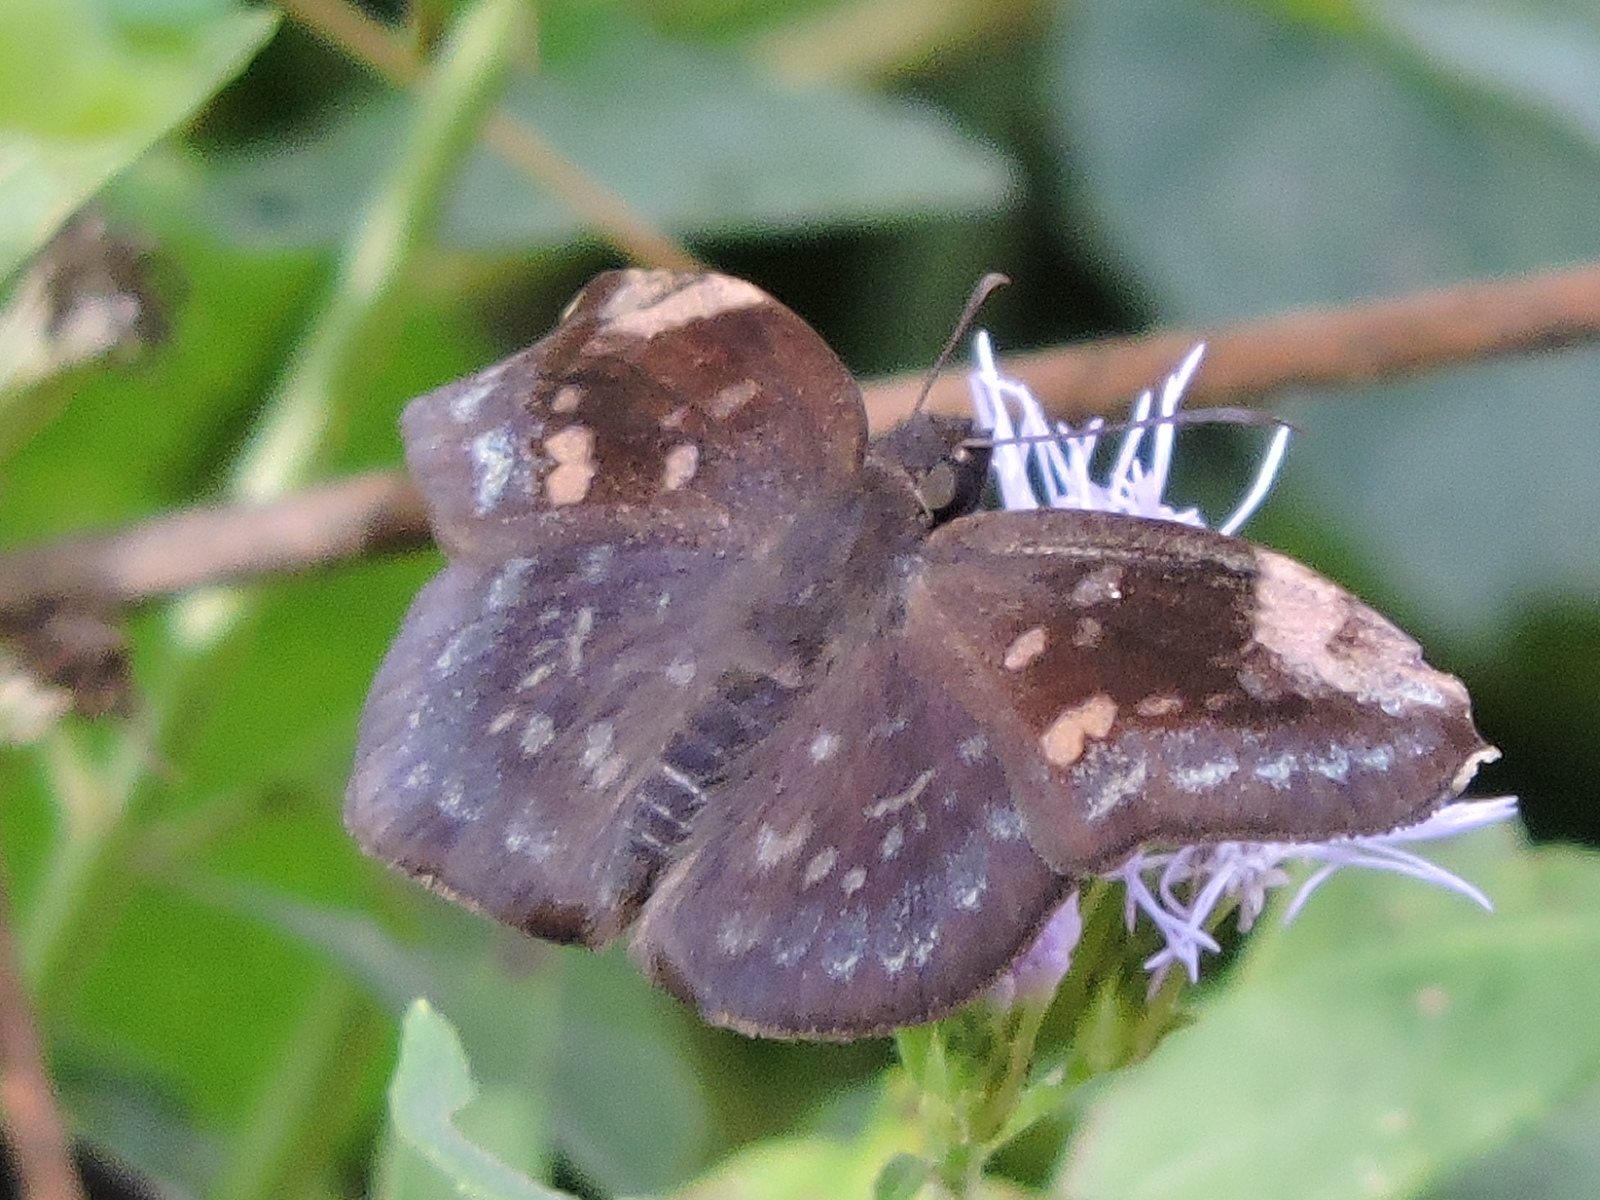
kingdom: Animalia
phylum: Arthropoda
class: Insecta
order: Lepidoptera
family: Hesperiidae
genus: Achlyodes
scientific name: Achlyodes thraso
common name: Sickle-winged skipper
